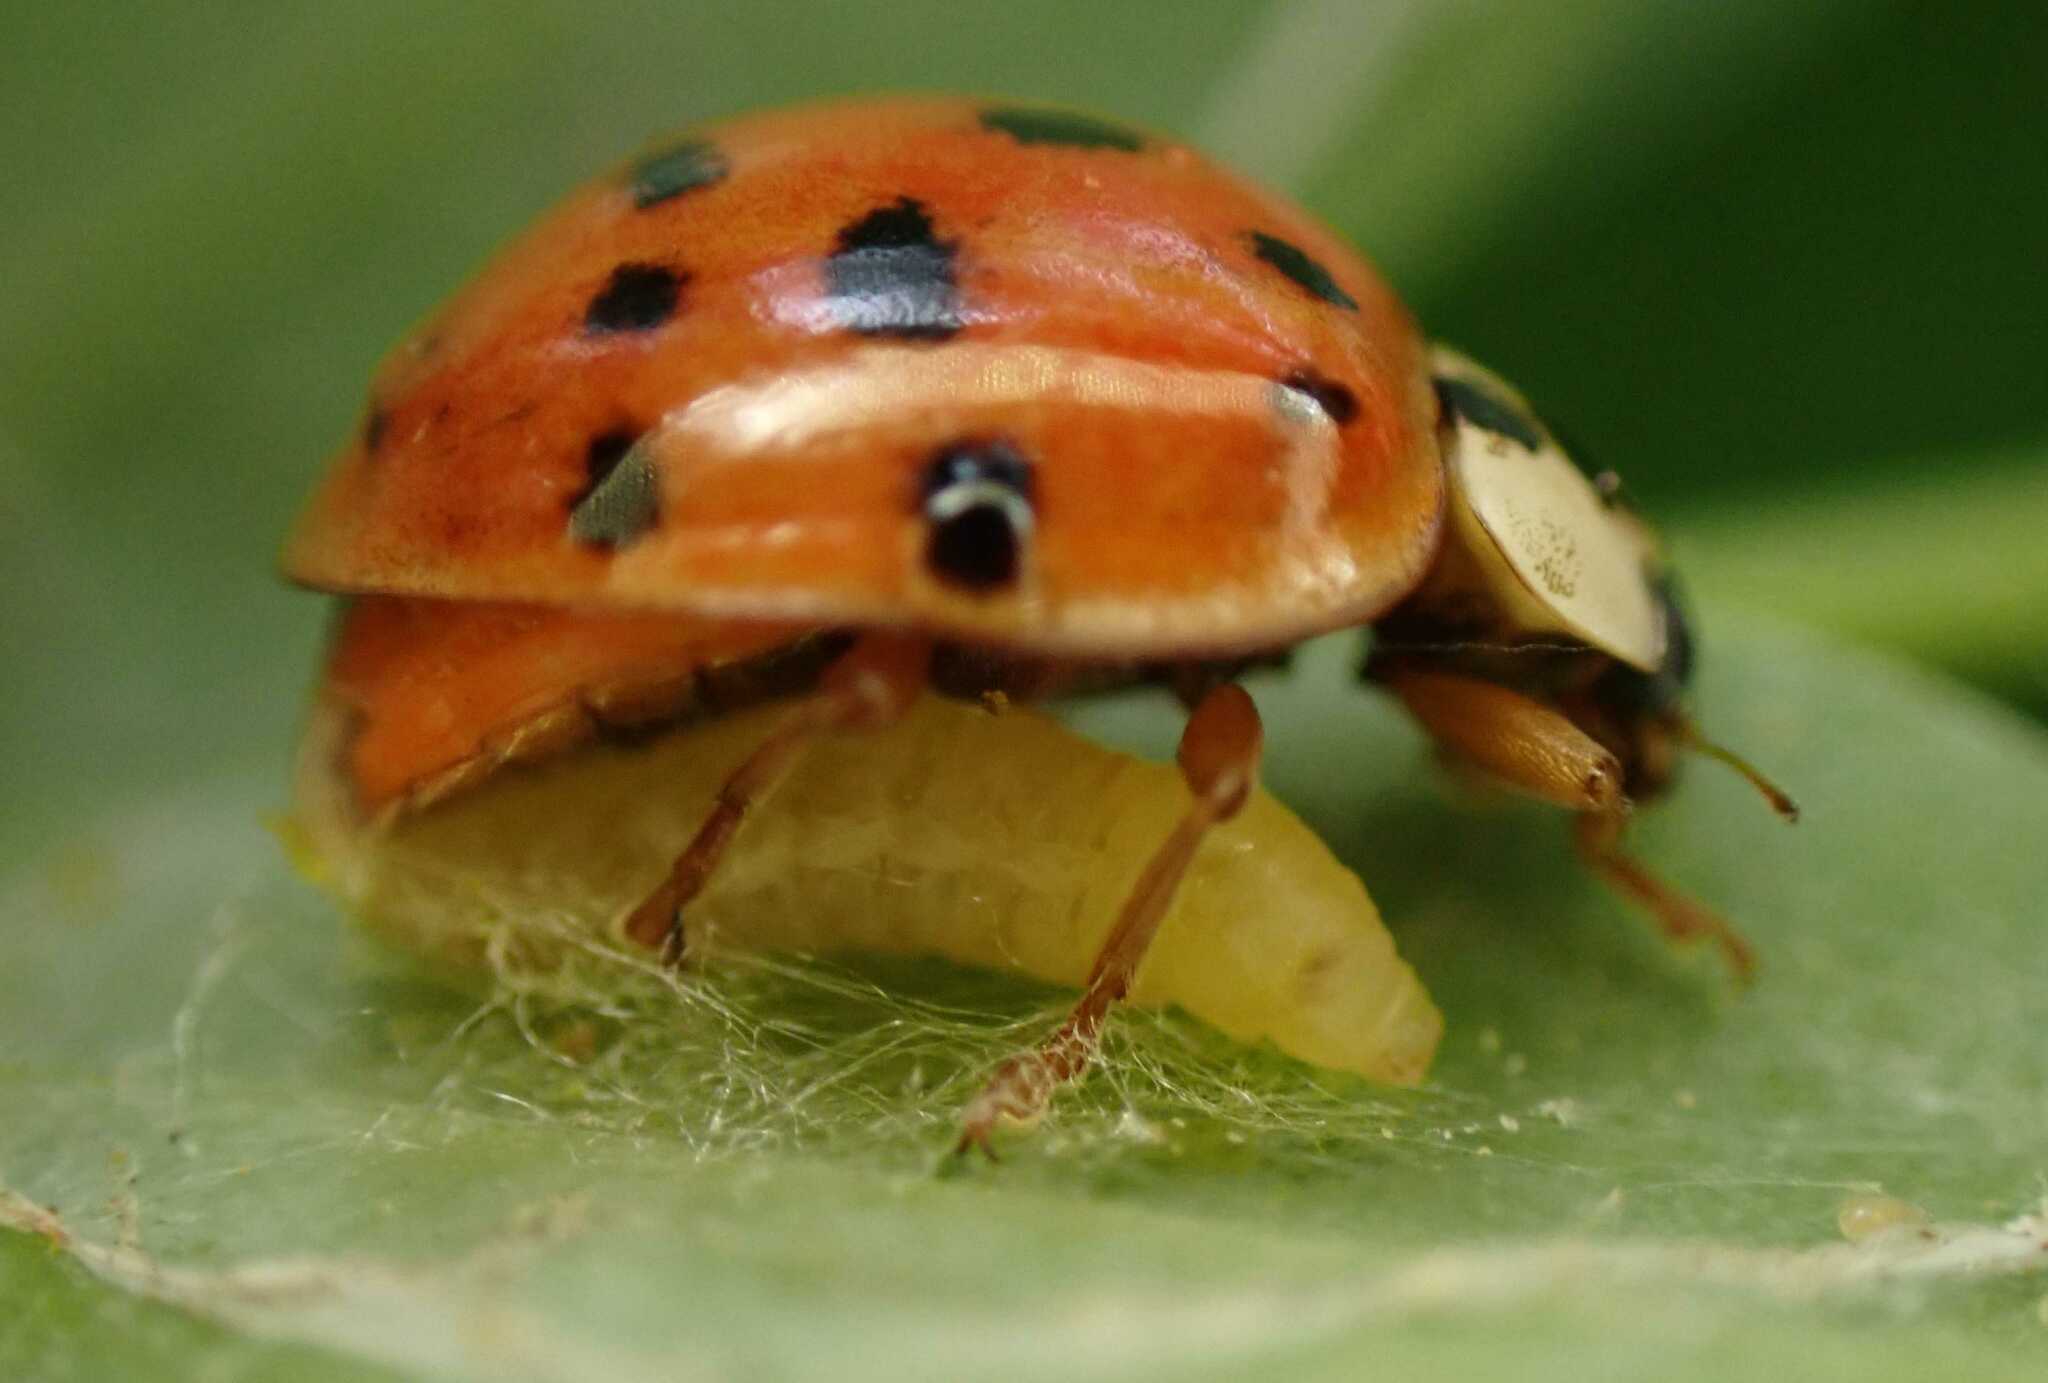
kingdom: Viruses
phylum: Pisuviricota
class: Pisoniviricetes
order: Picornavirales
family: Iflaviridae
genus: Iflavirus
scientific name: Iflavirus dinococcinellae
